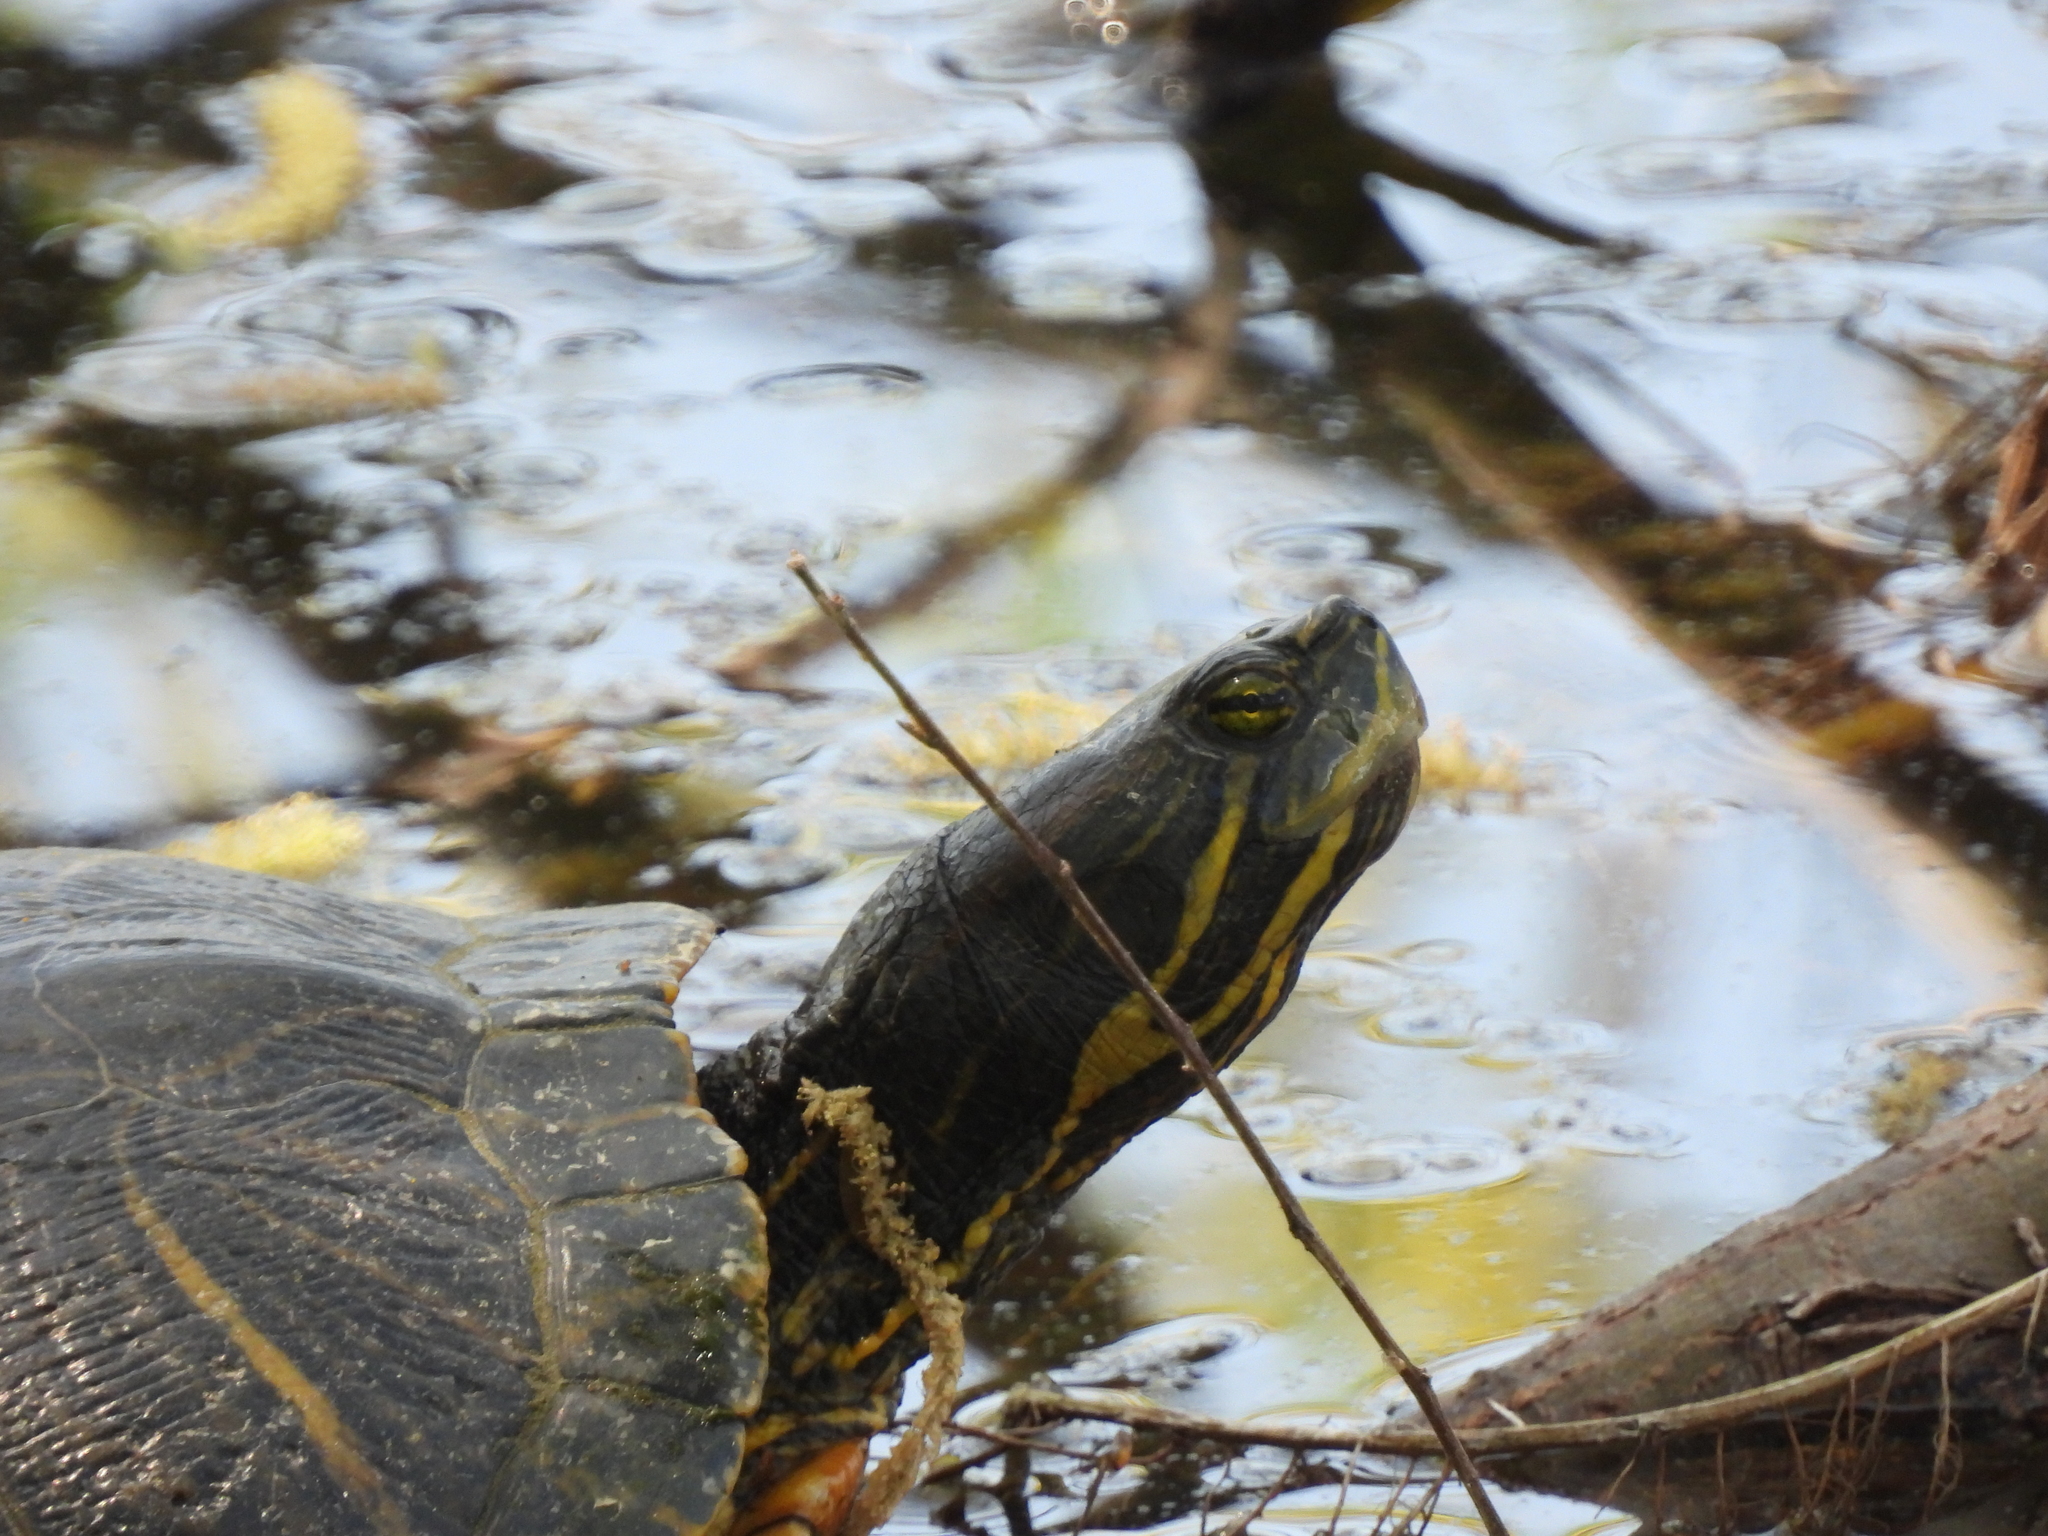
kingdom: Animalia
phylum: Chordata
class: Testudines
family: Emydidae
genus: Trachemys
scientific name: Trachemys scripta
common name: Slider
